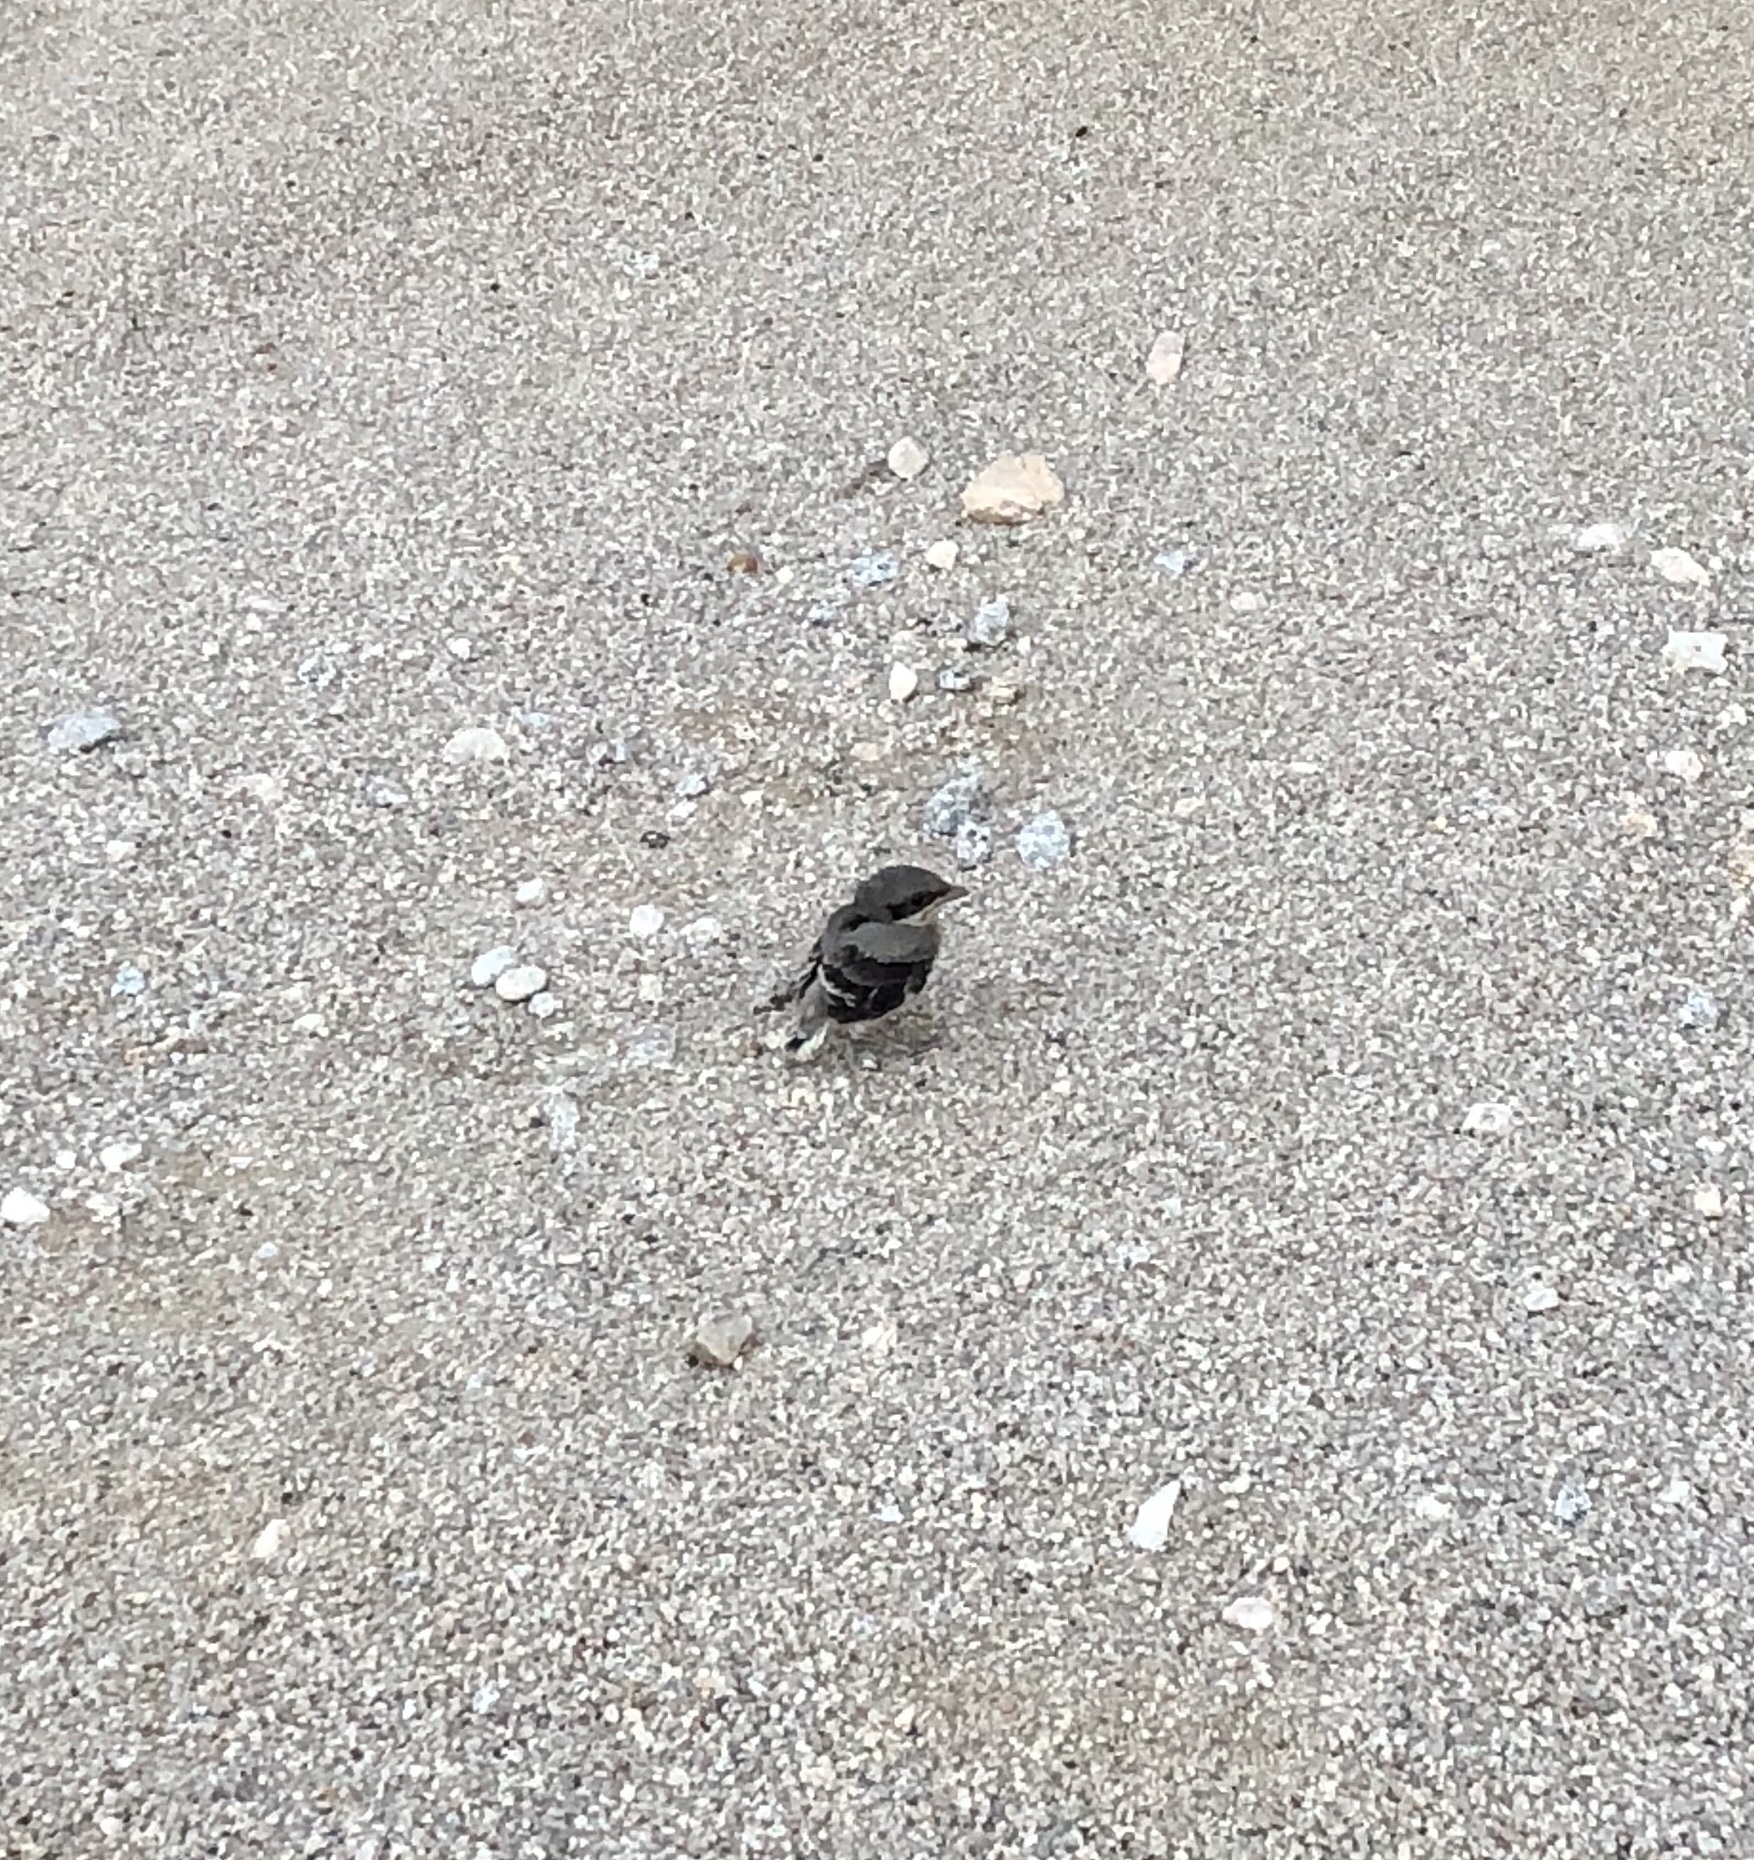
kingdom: Animalia
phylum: Chordata
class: Aves
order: Passeriformes
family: Laniidae
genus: Lanius
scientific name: Lanius ludovicianus
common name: Loggerhead shrike
